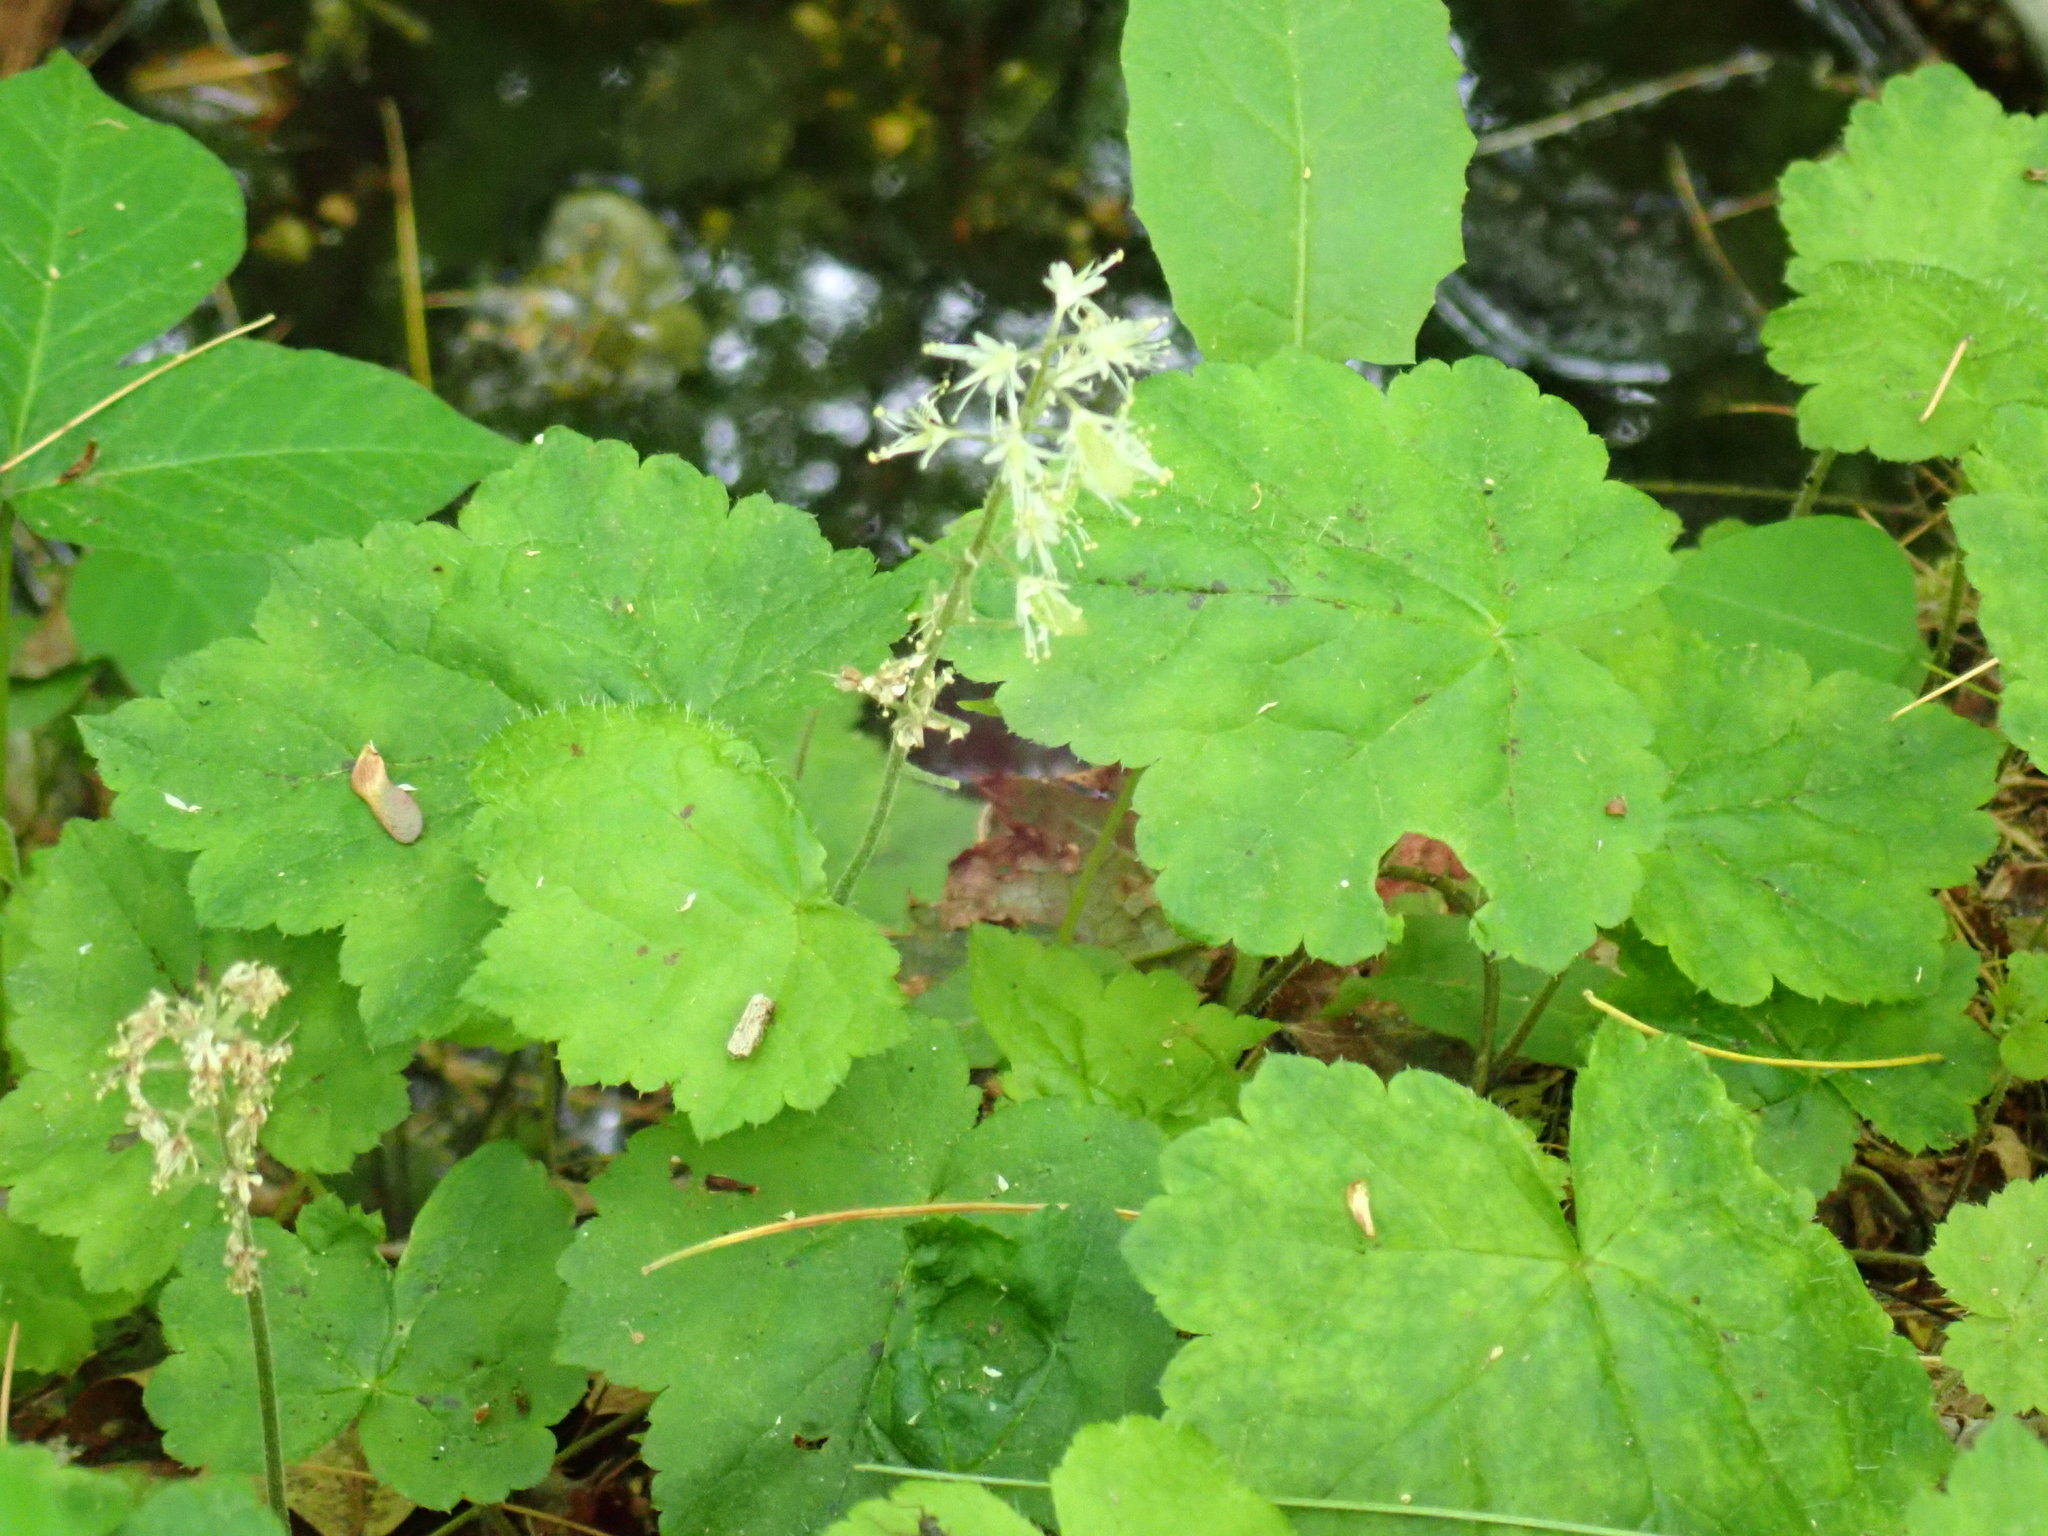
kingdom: Plantae
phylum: Tracheophyta
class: Magnoliopsida
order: Saxifragales
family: Saxifragaceae
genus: Tiarella
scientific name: Tiarella stolonifera
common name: Stoloniferous foamflower
